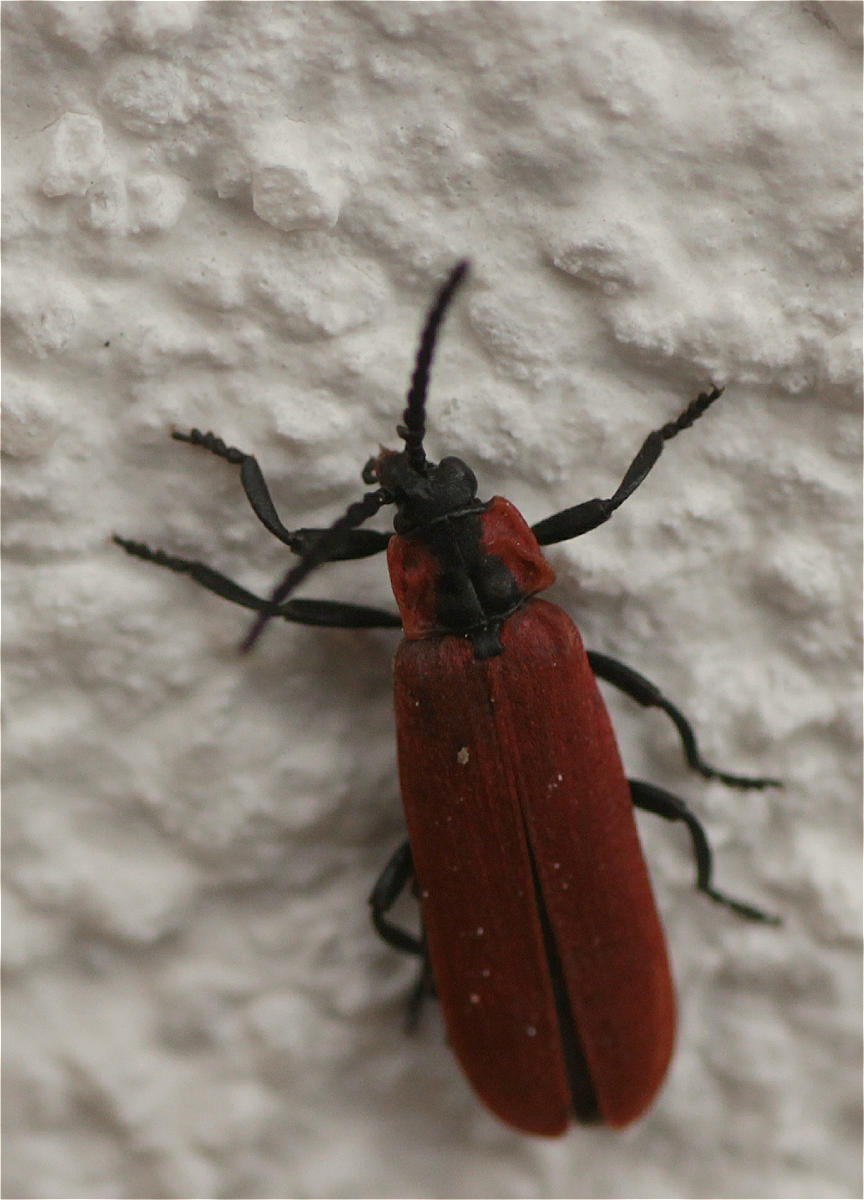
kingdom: Animalia
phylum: Arthropoda
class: Insecta
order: Coleoptera
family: Lycidae
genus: Lygistopterus
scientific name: Lygistopterus sanguineus
